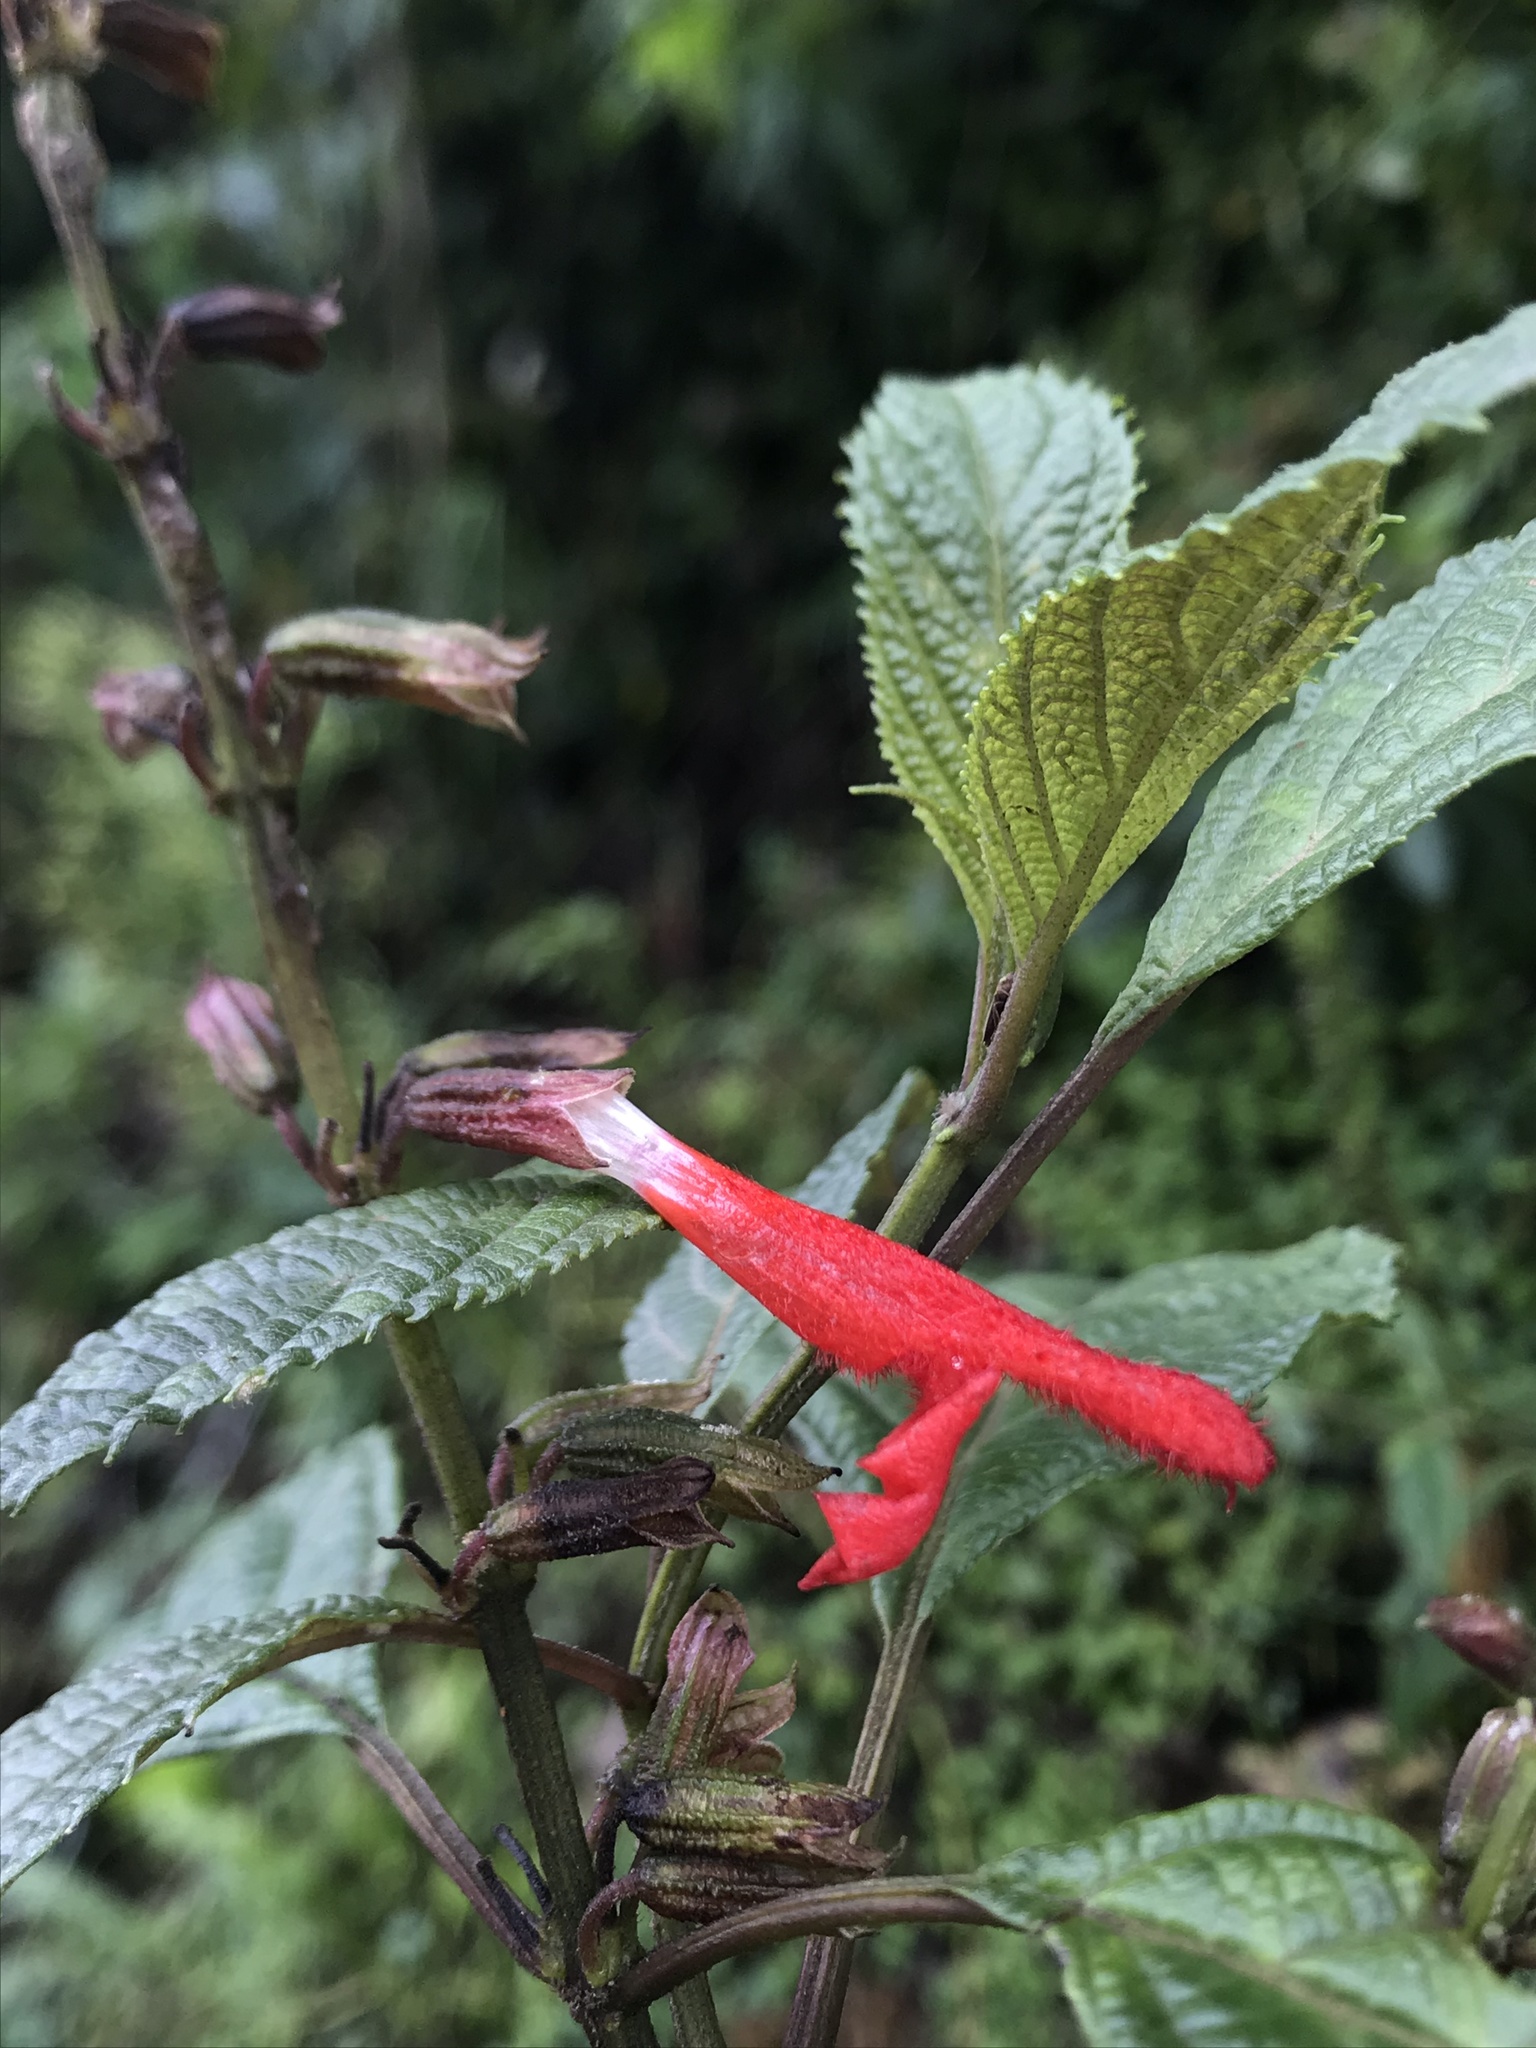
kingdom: Plantae
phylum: Tracheophyta
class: Magnoliopsida
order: Lamiales
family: Lamiaceae
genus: Salvia
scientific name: Salvia rufula
